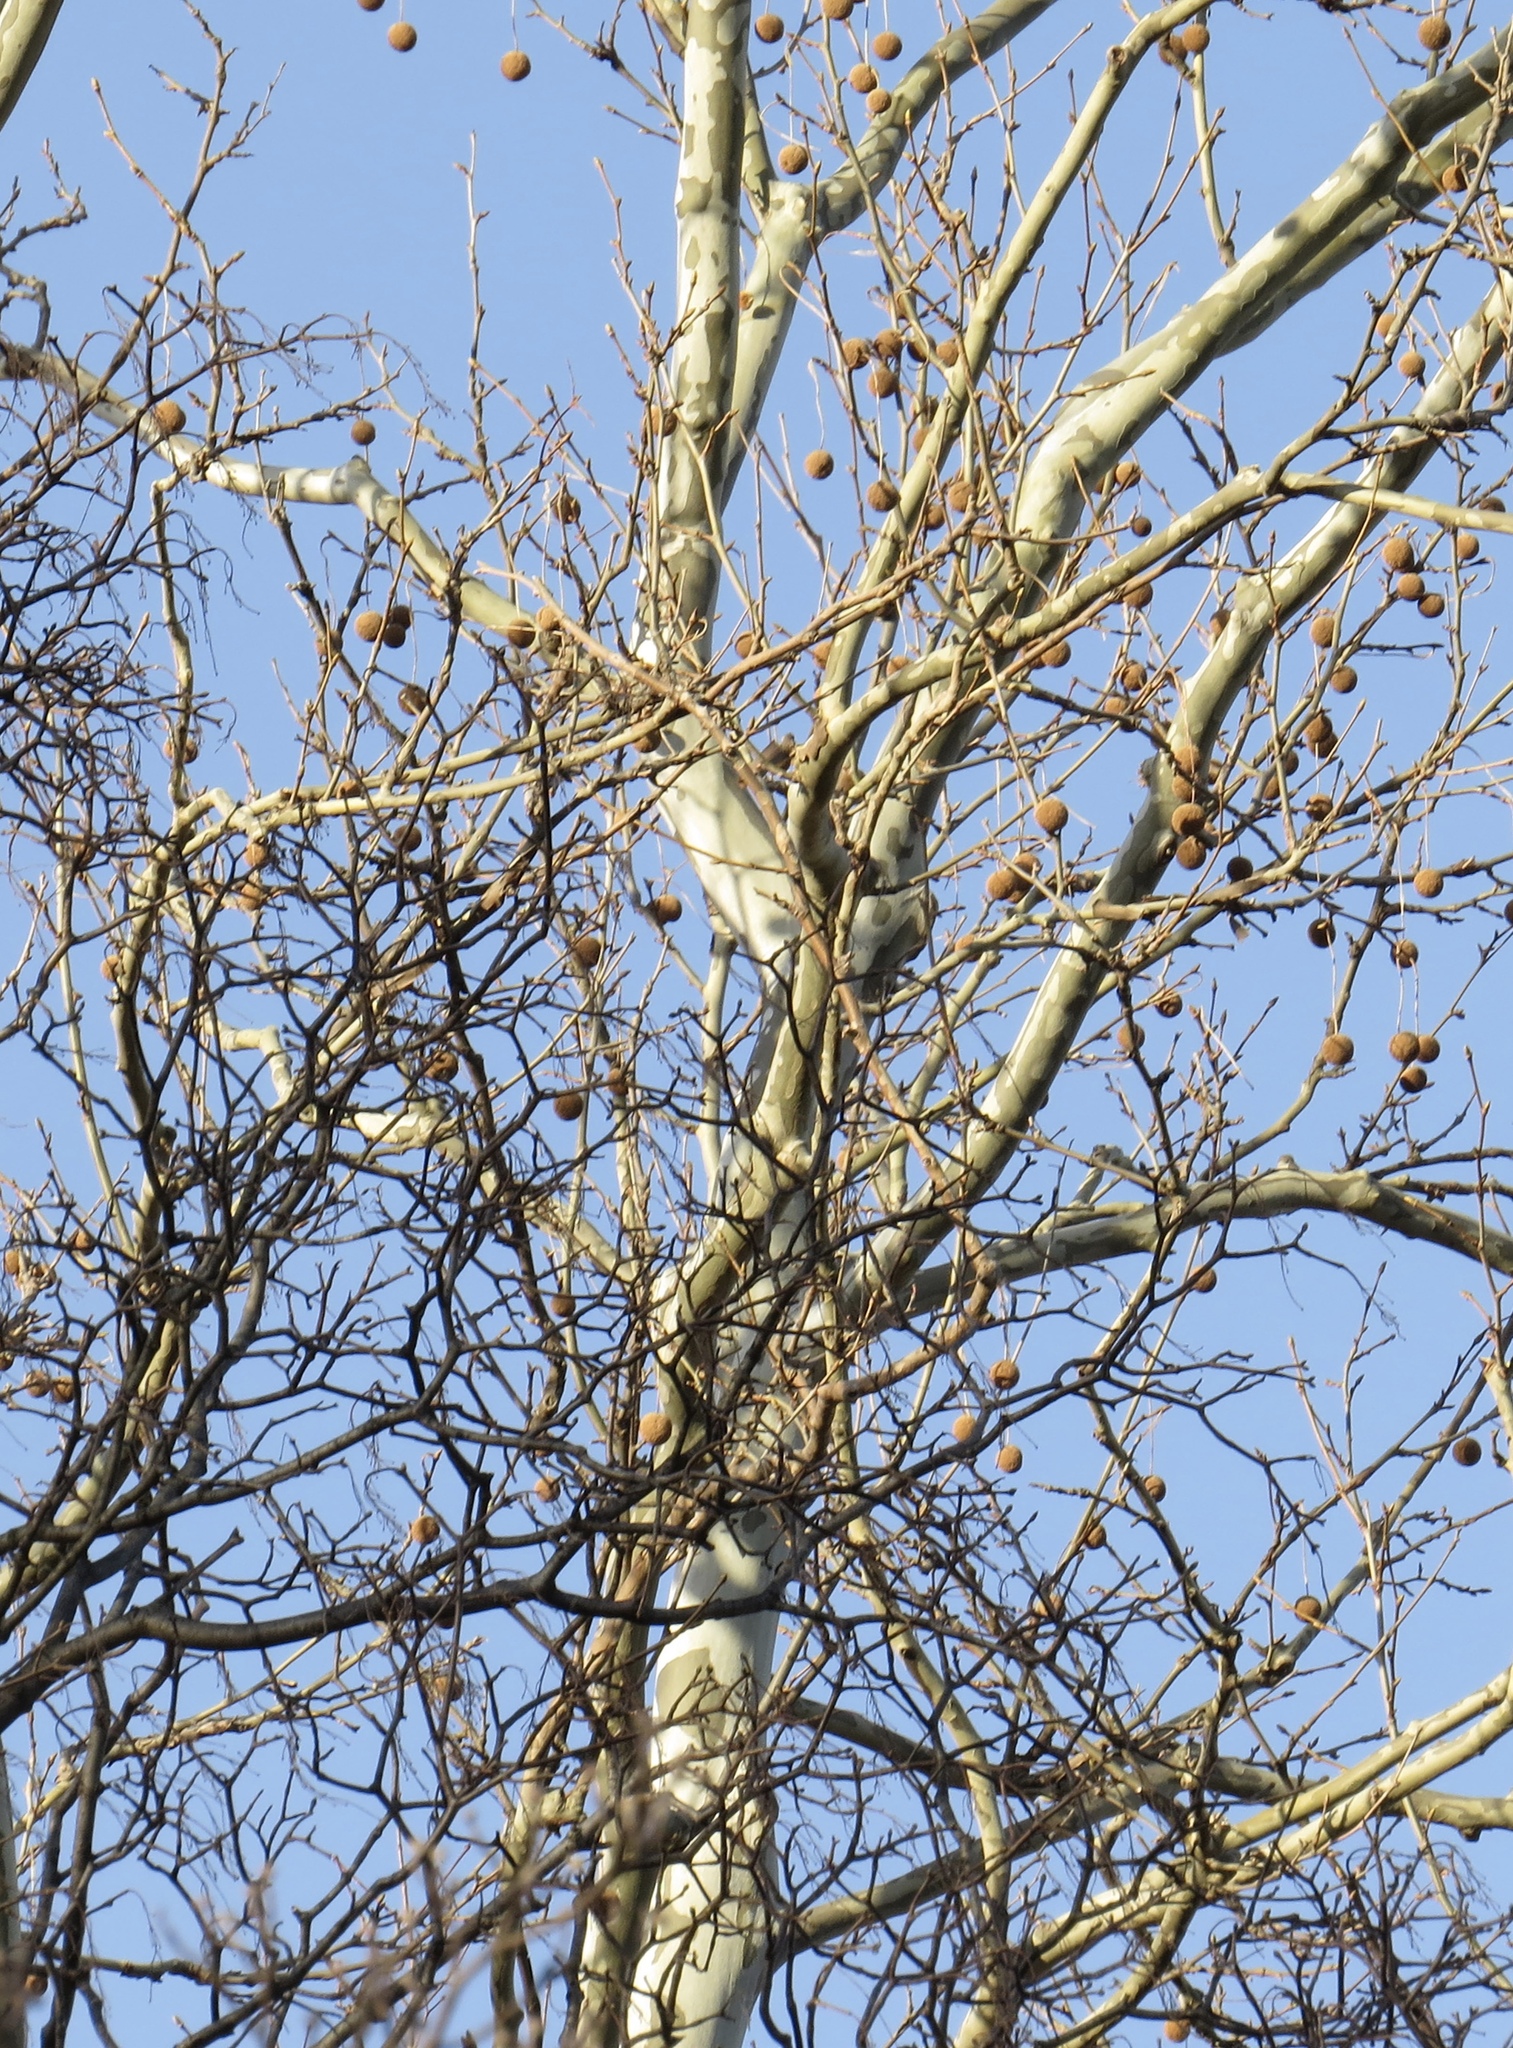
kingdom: Plantae
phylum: Tracheophyta
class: Magnoliopsida
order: Proteales
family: Platanaceae
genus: Platanus
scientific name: Platanus occidentalis
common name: American sycamore
